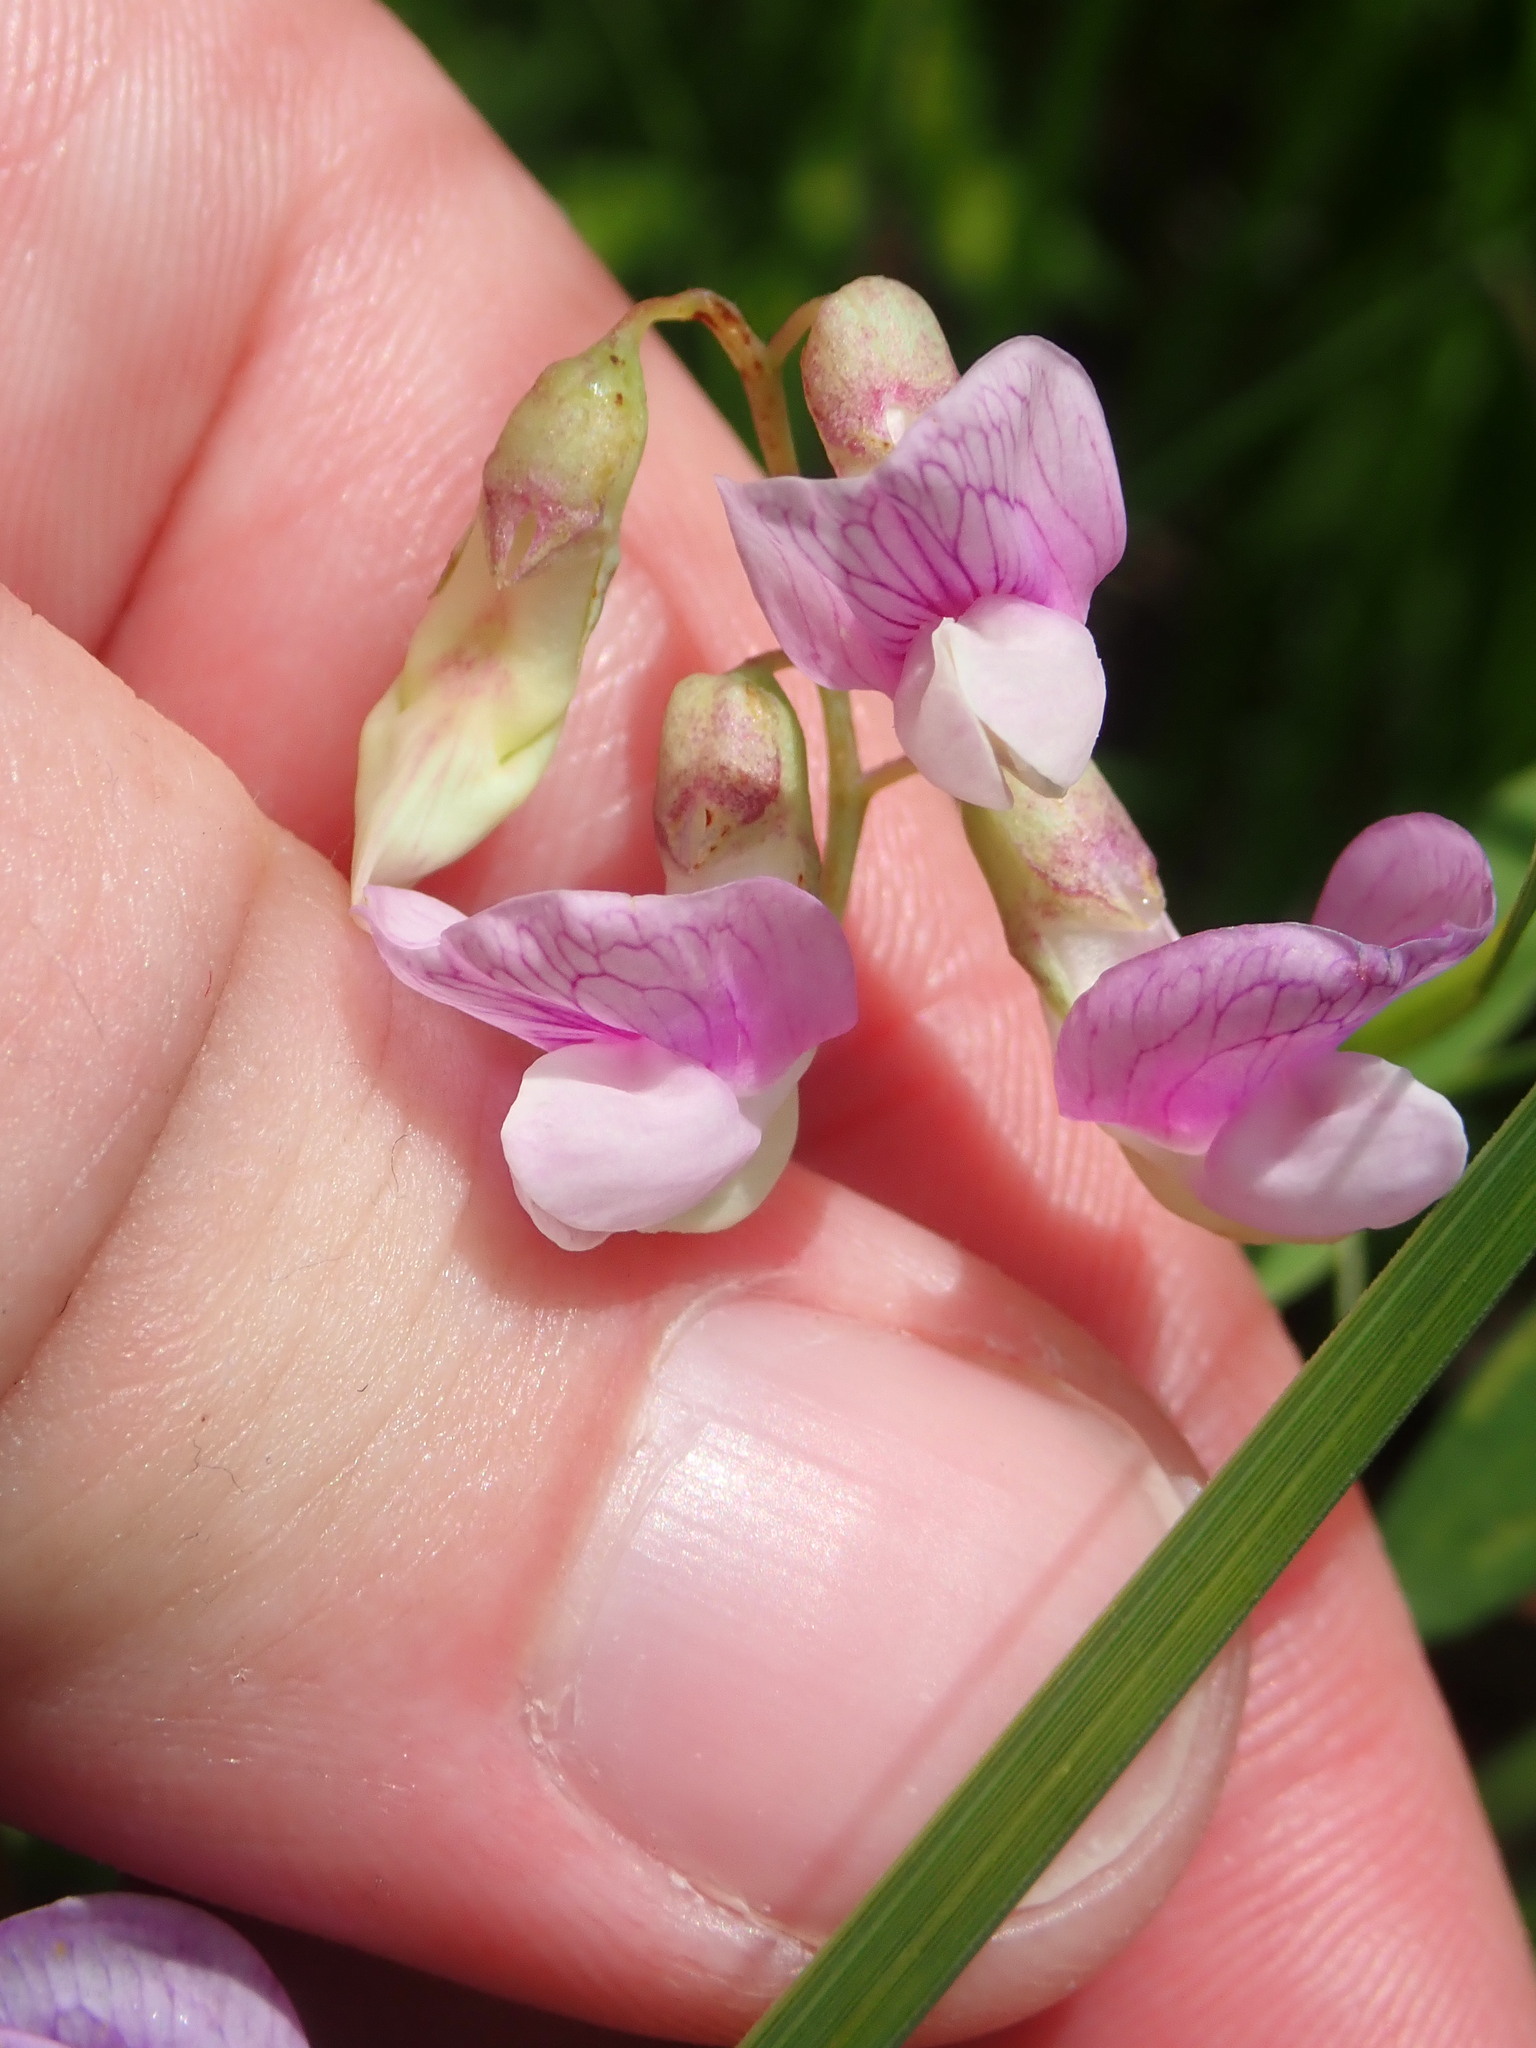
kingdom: Plantae
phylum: Tracheophyta
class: Magnoliopsida
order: Fabales
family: Fabaceae
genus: Lathyrus
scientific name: Lathyrus palustris
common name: Marsh pea
